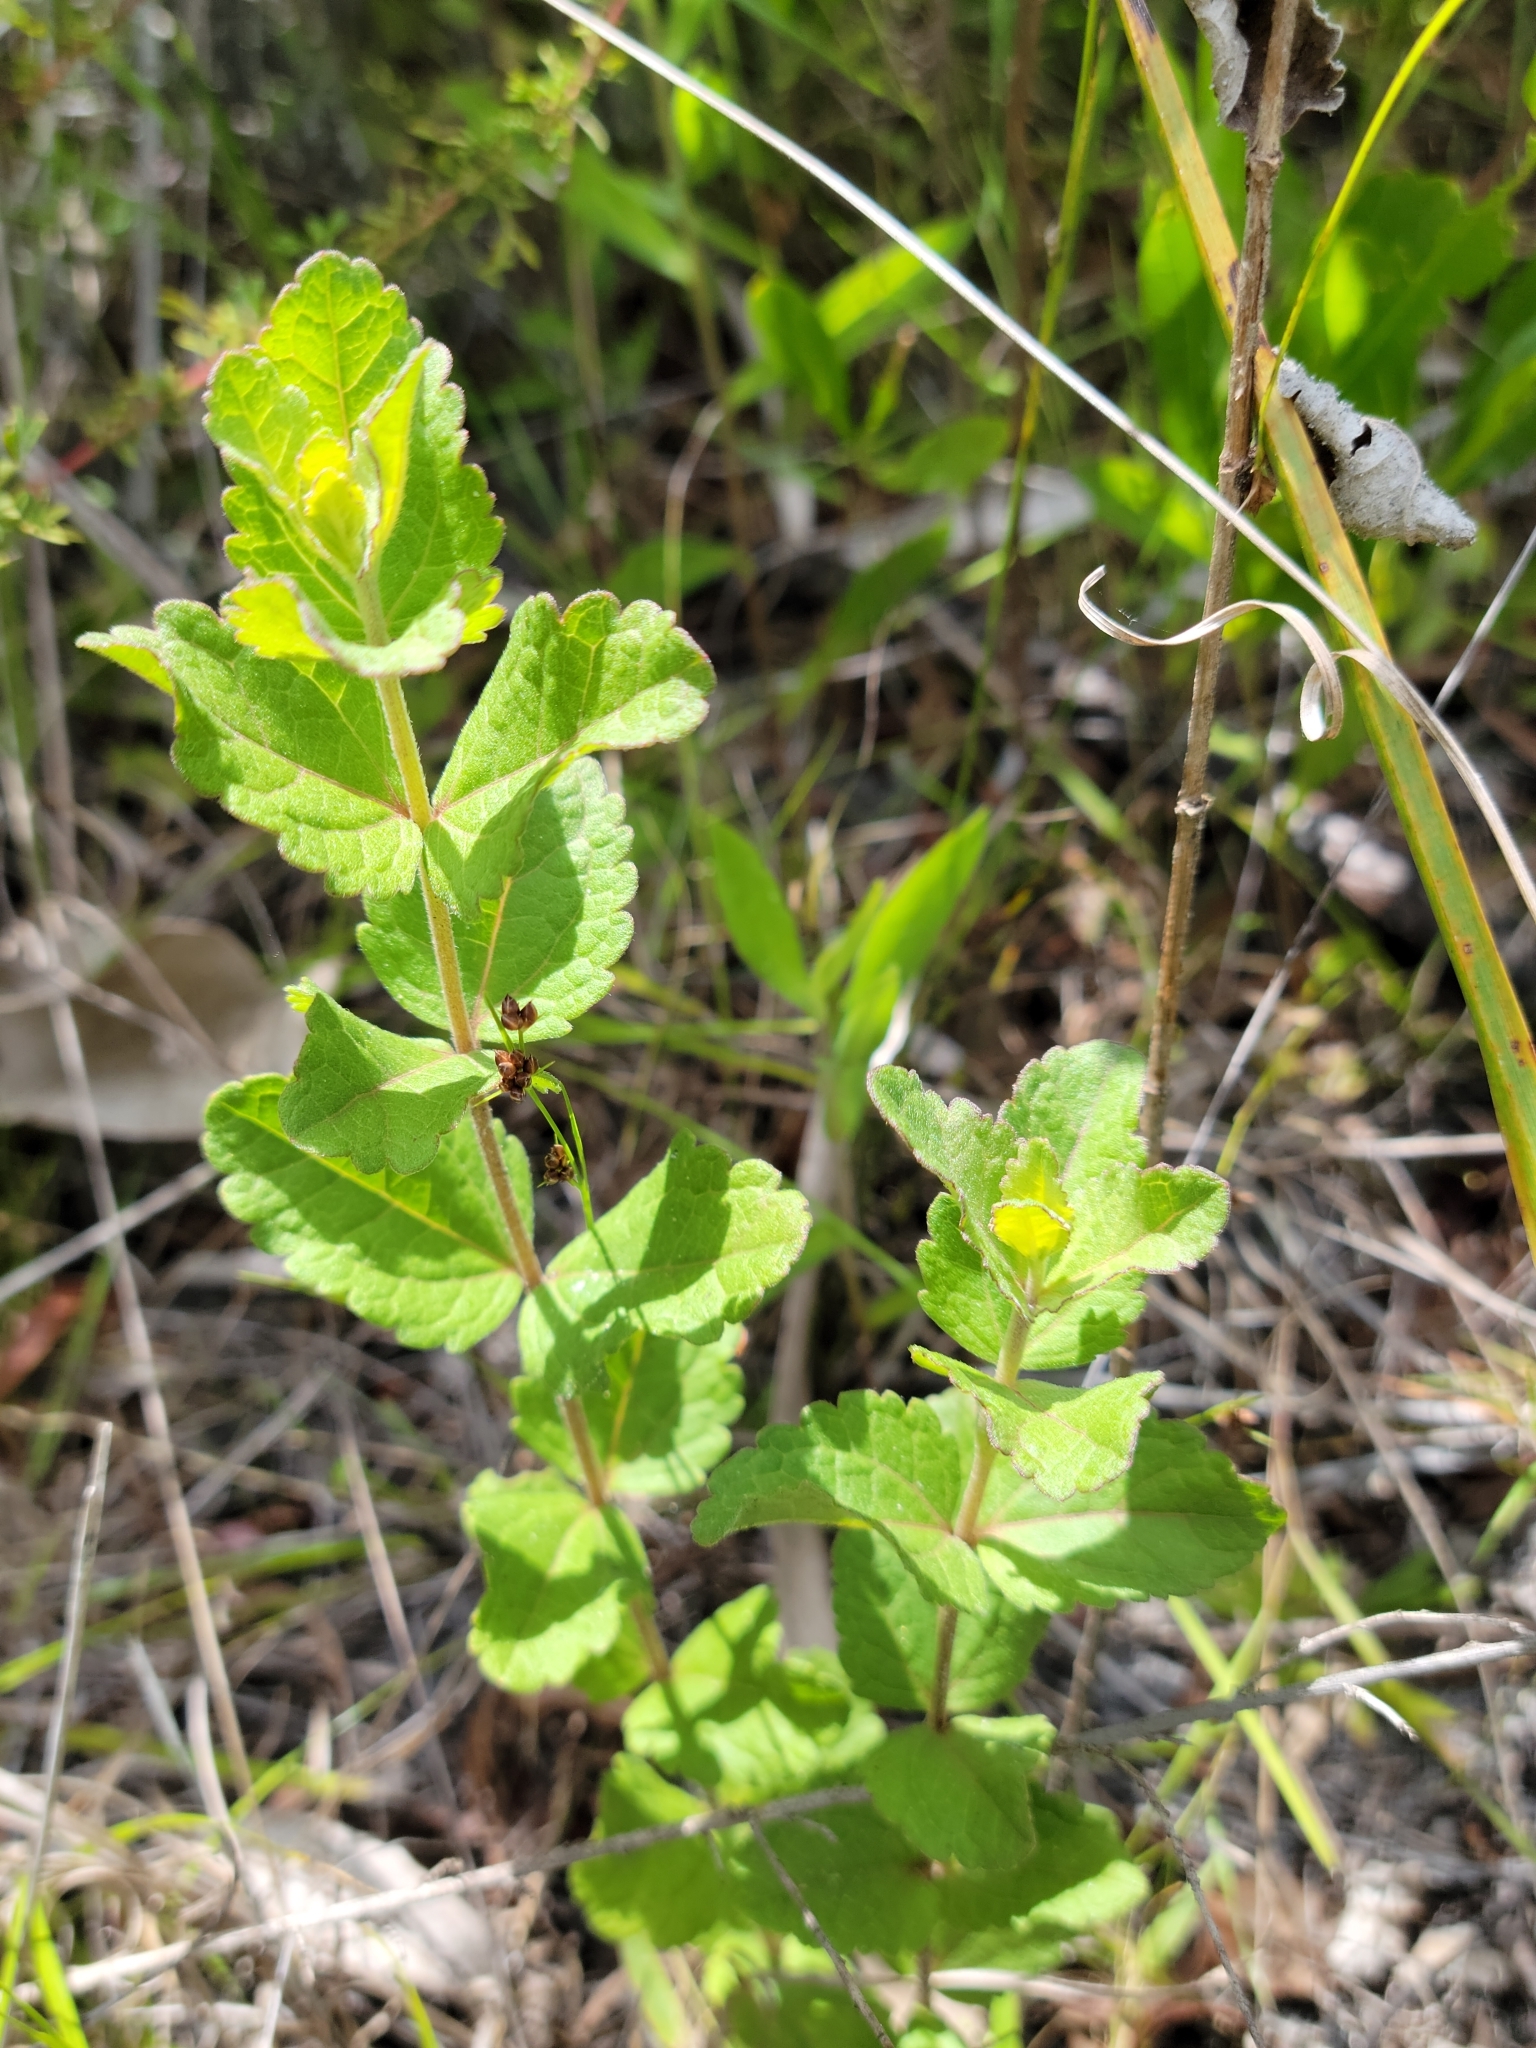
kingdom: Plantae
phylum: Tracheophyta
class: Magnoliopsida
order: Asterales
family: Asteraceae
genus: Eupatorium
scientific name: Eupatorium rotundifolium
